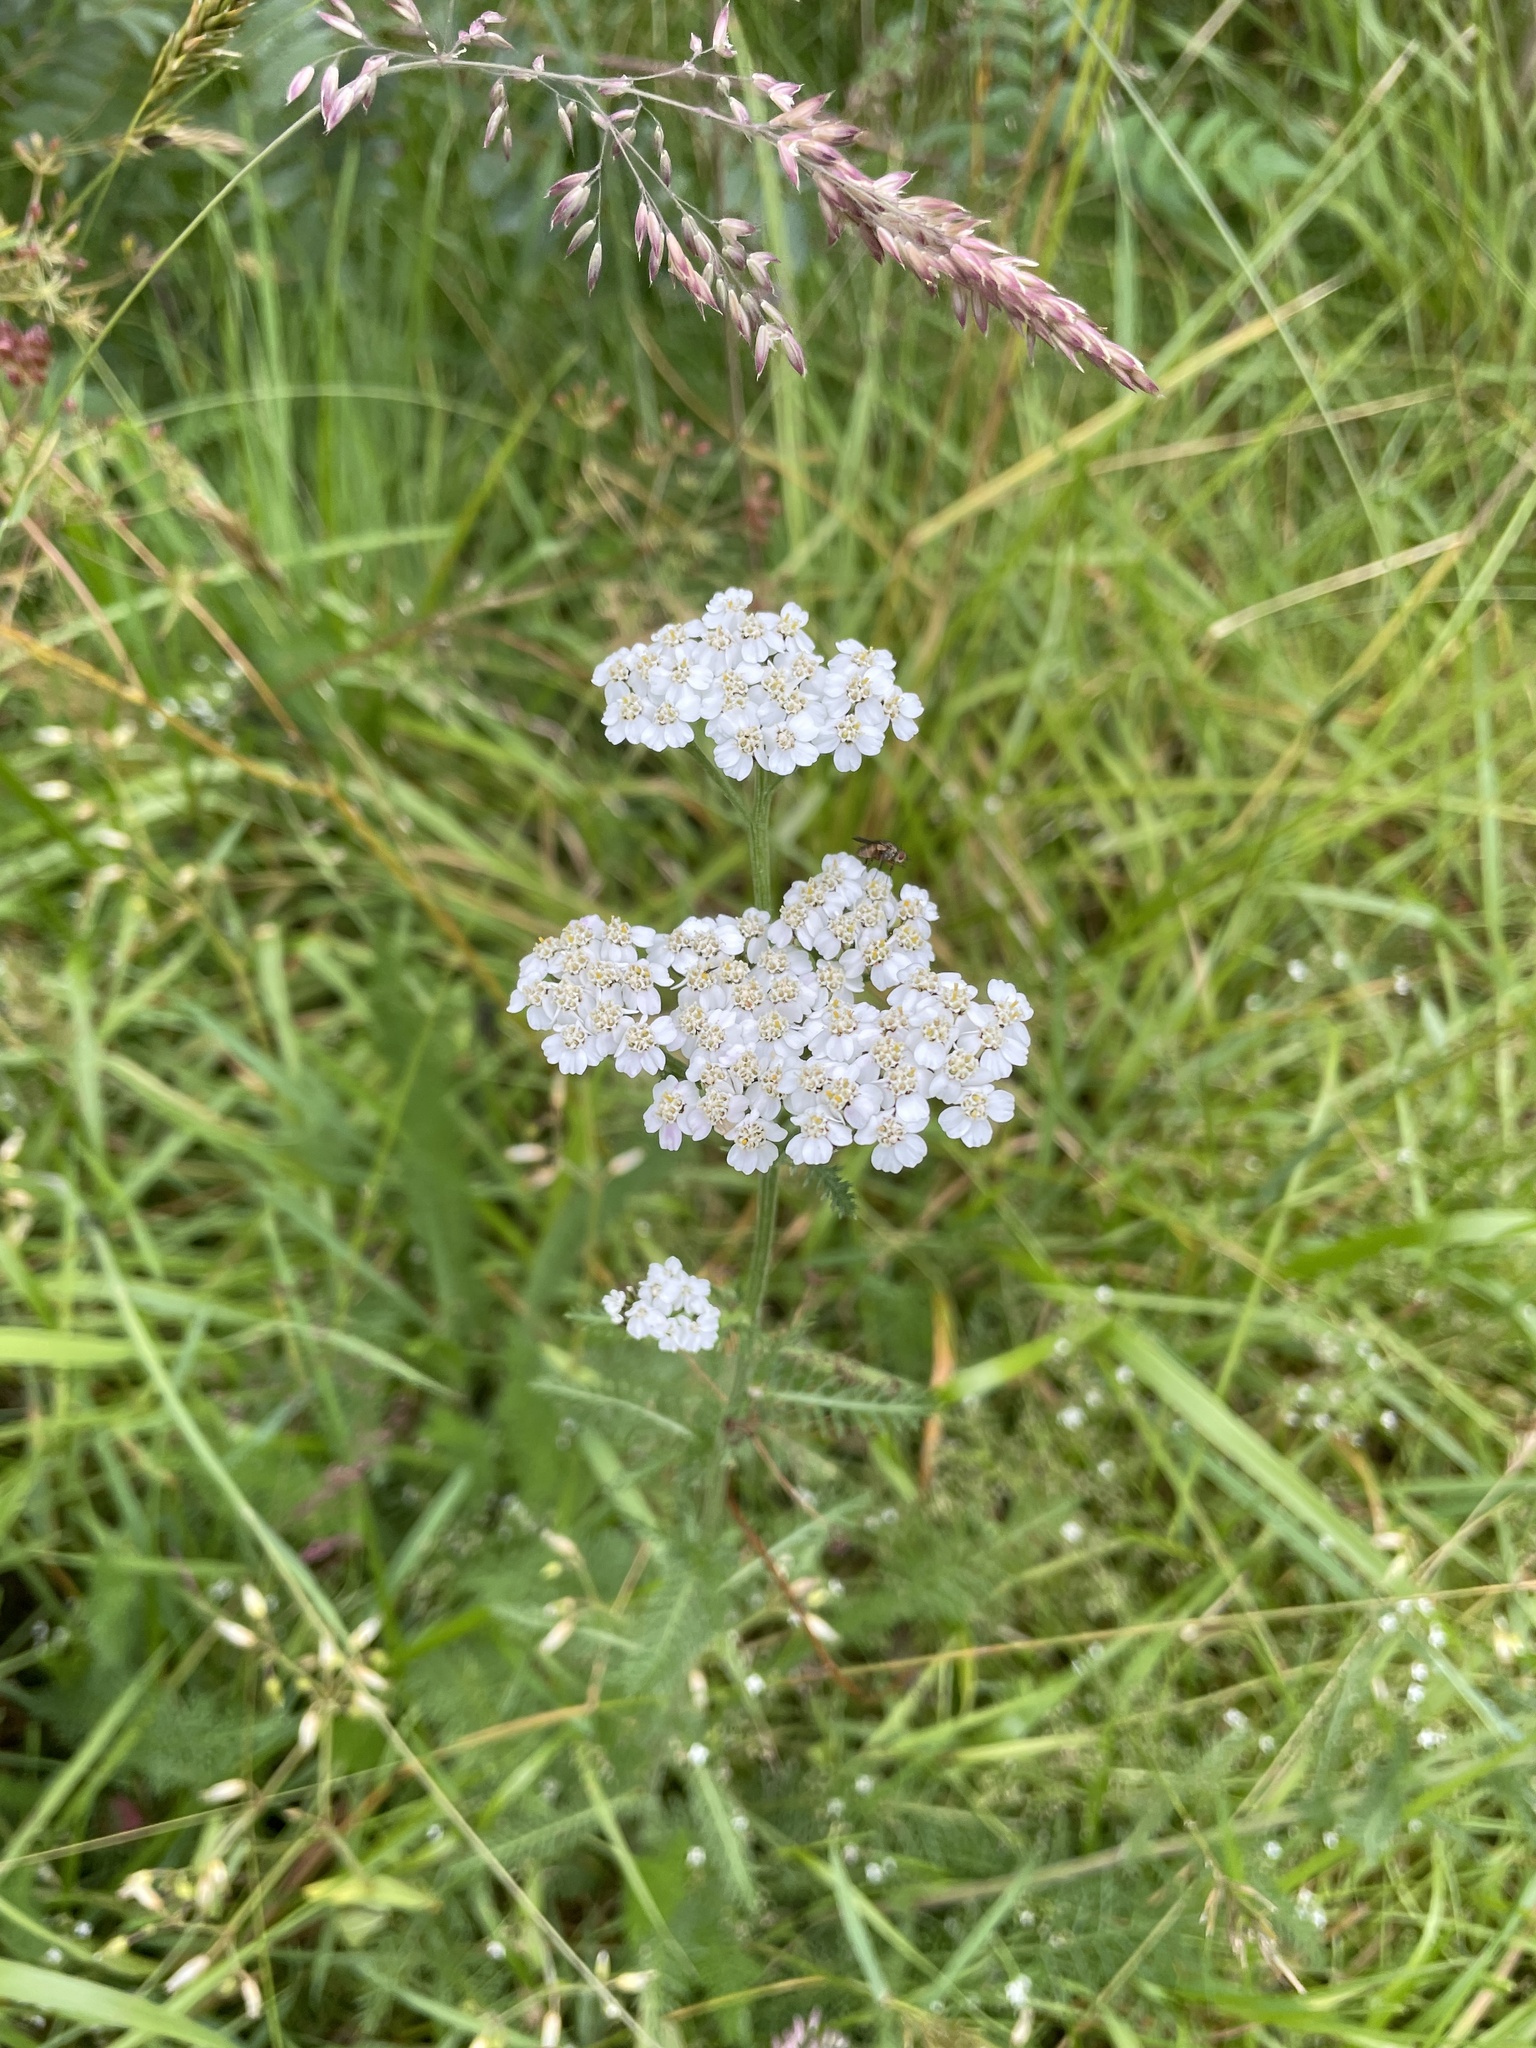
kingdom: Plantae
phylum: Tracheophyta
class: Magnoliopsida
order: Asterales
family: Asteraceae
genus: Achillea
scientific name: Achillea millefolium
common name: Yarrow
